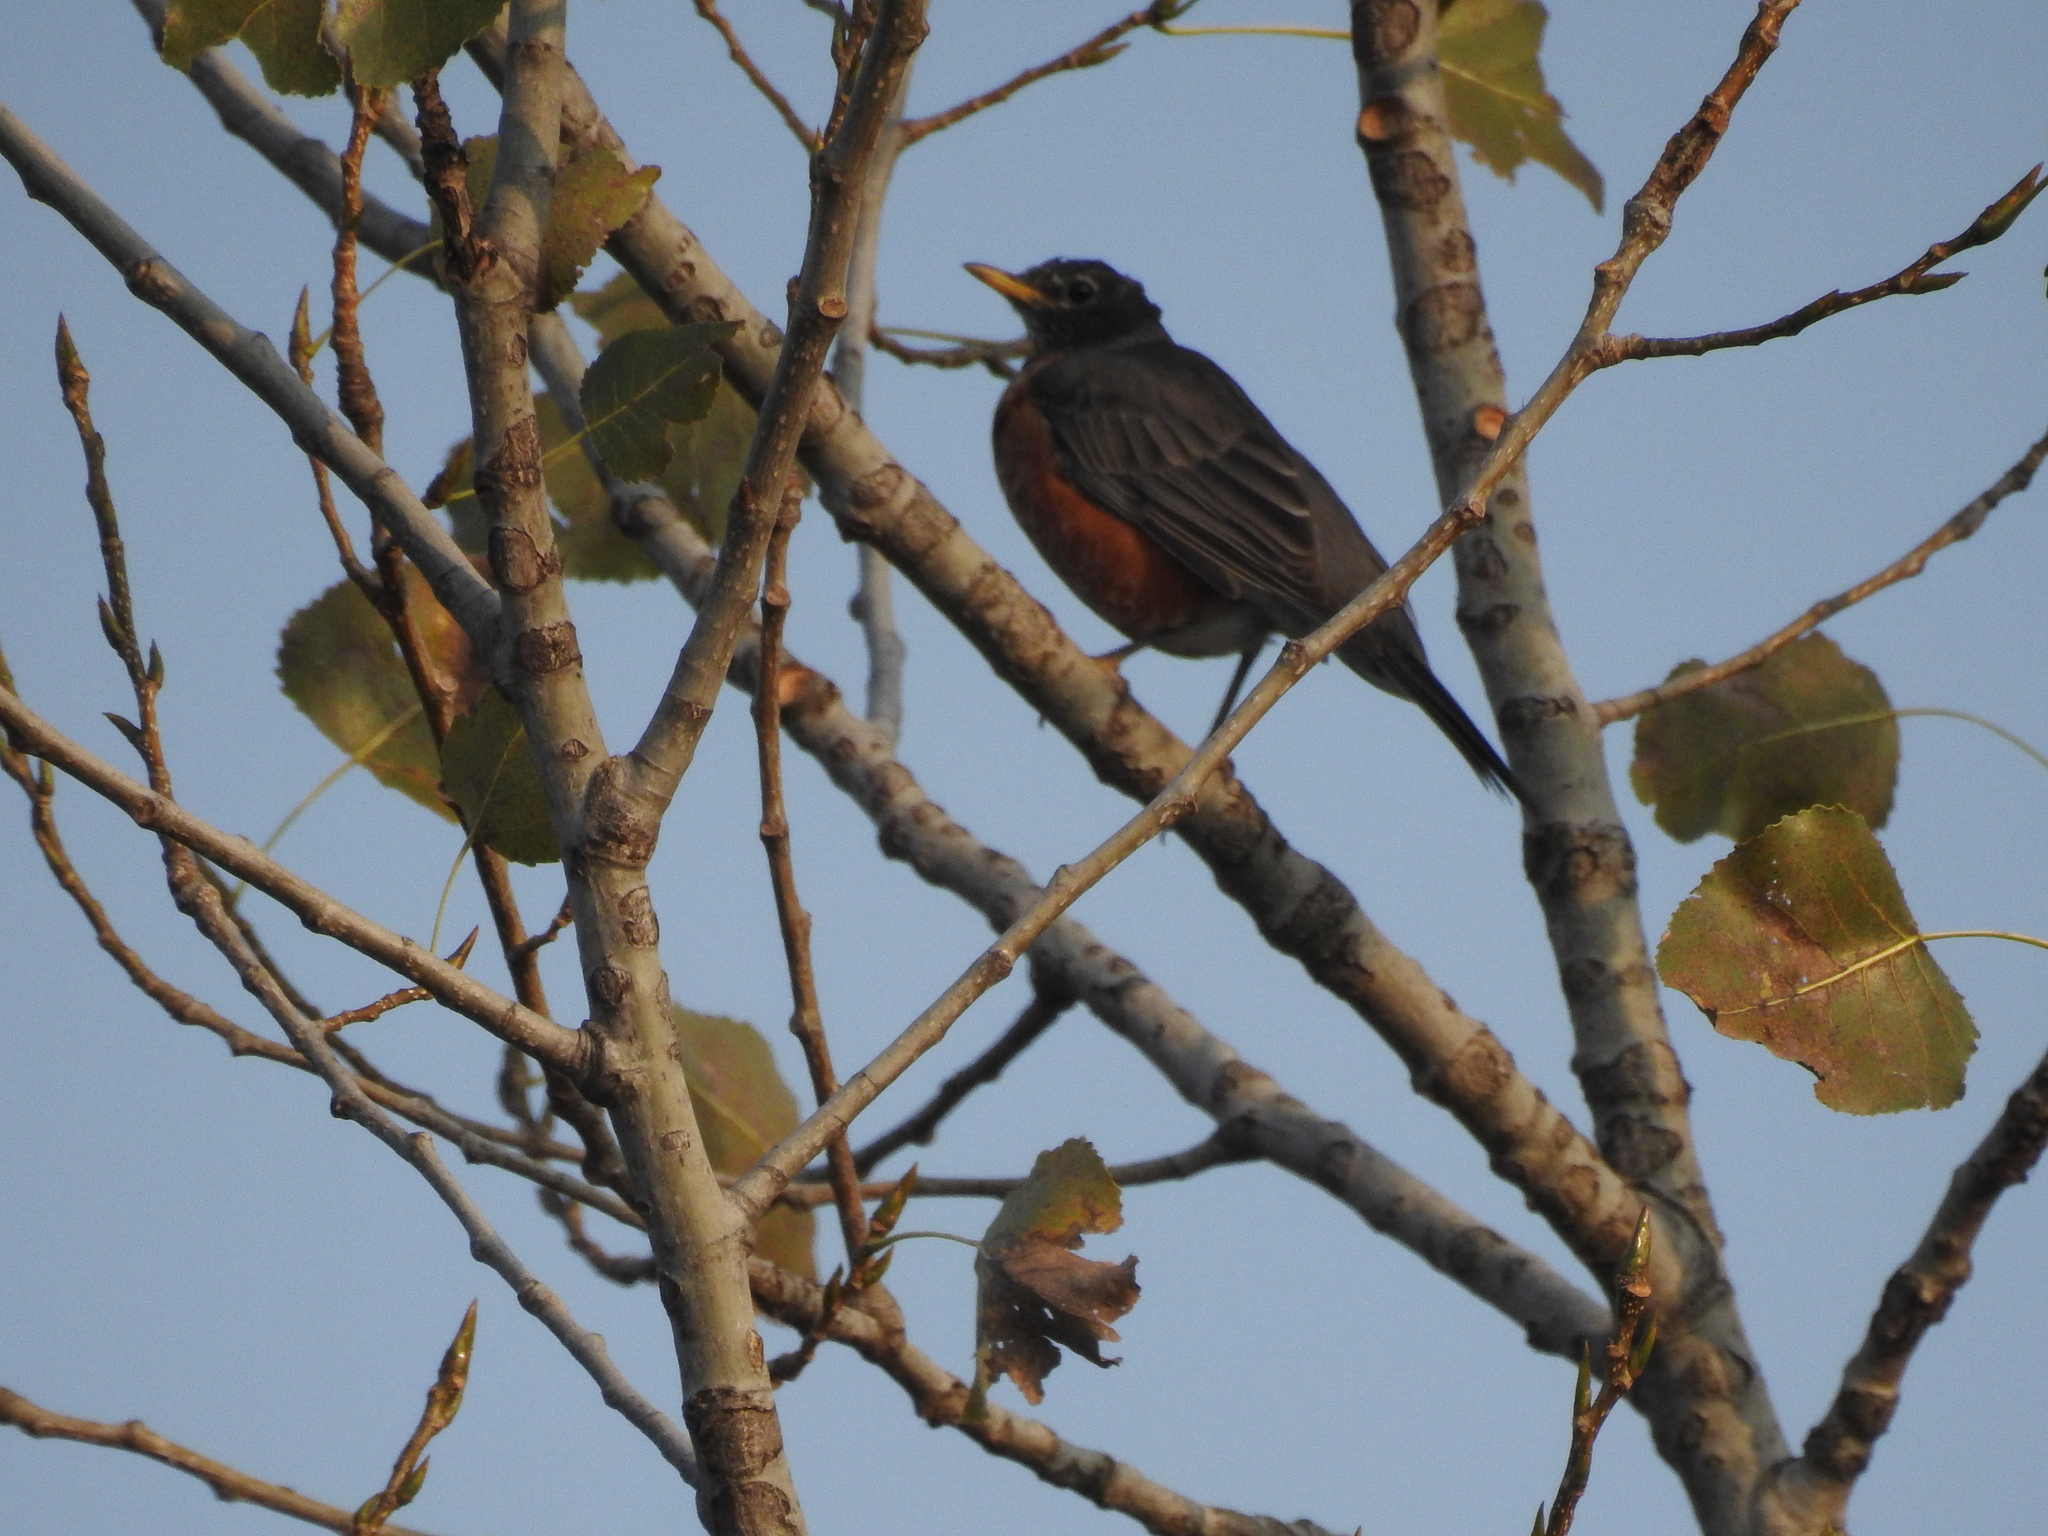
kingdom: Animalia
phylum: Chordata
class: Aves
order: Passeriformes
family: Turdidae
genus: Turdus
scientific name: Turdus migratorius
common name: American robin
